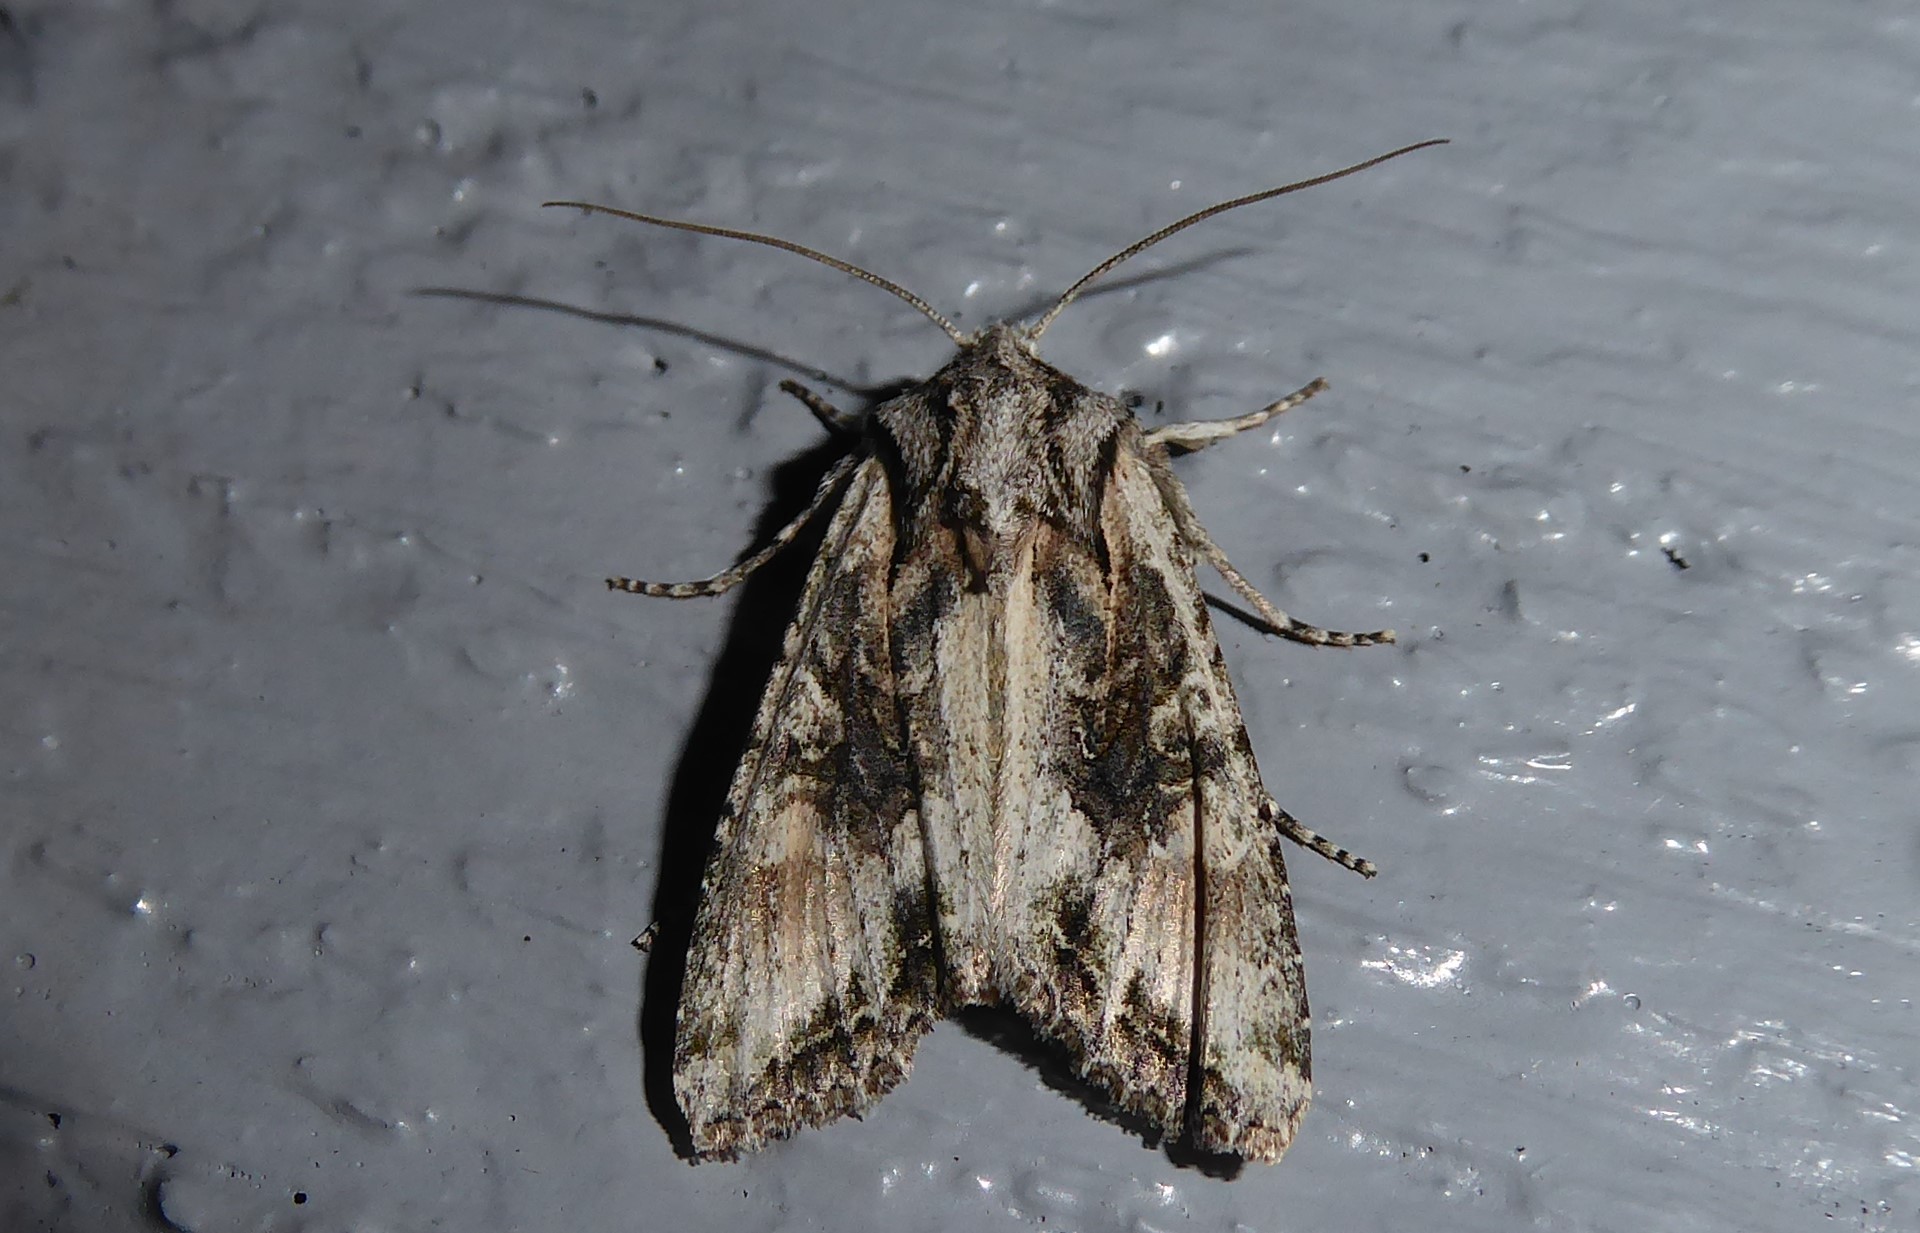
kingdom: Animalia
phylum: Arthropoda
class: Insecta
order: Lepidoptera
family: Noctuidae
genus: Ichneutica
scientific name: Ichneutica mutans
